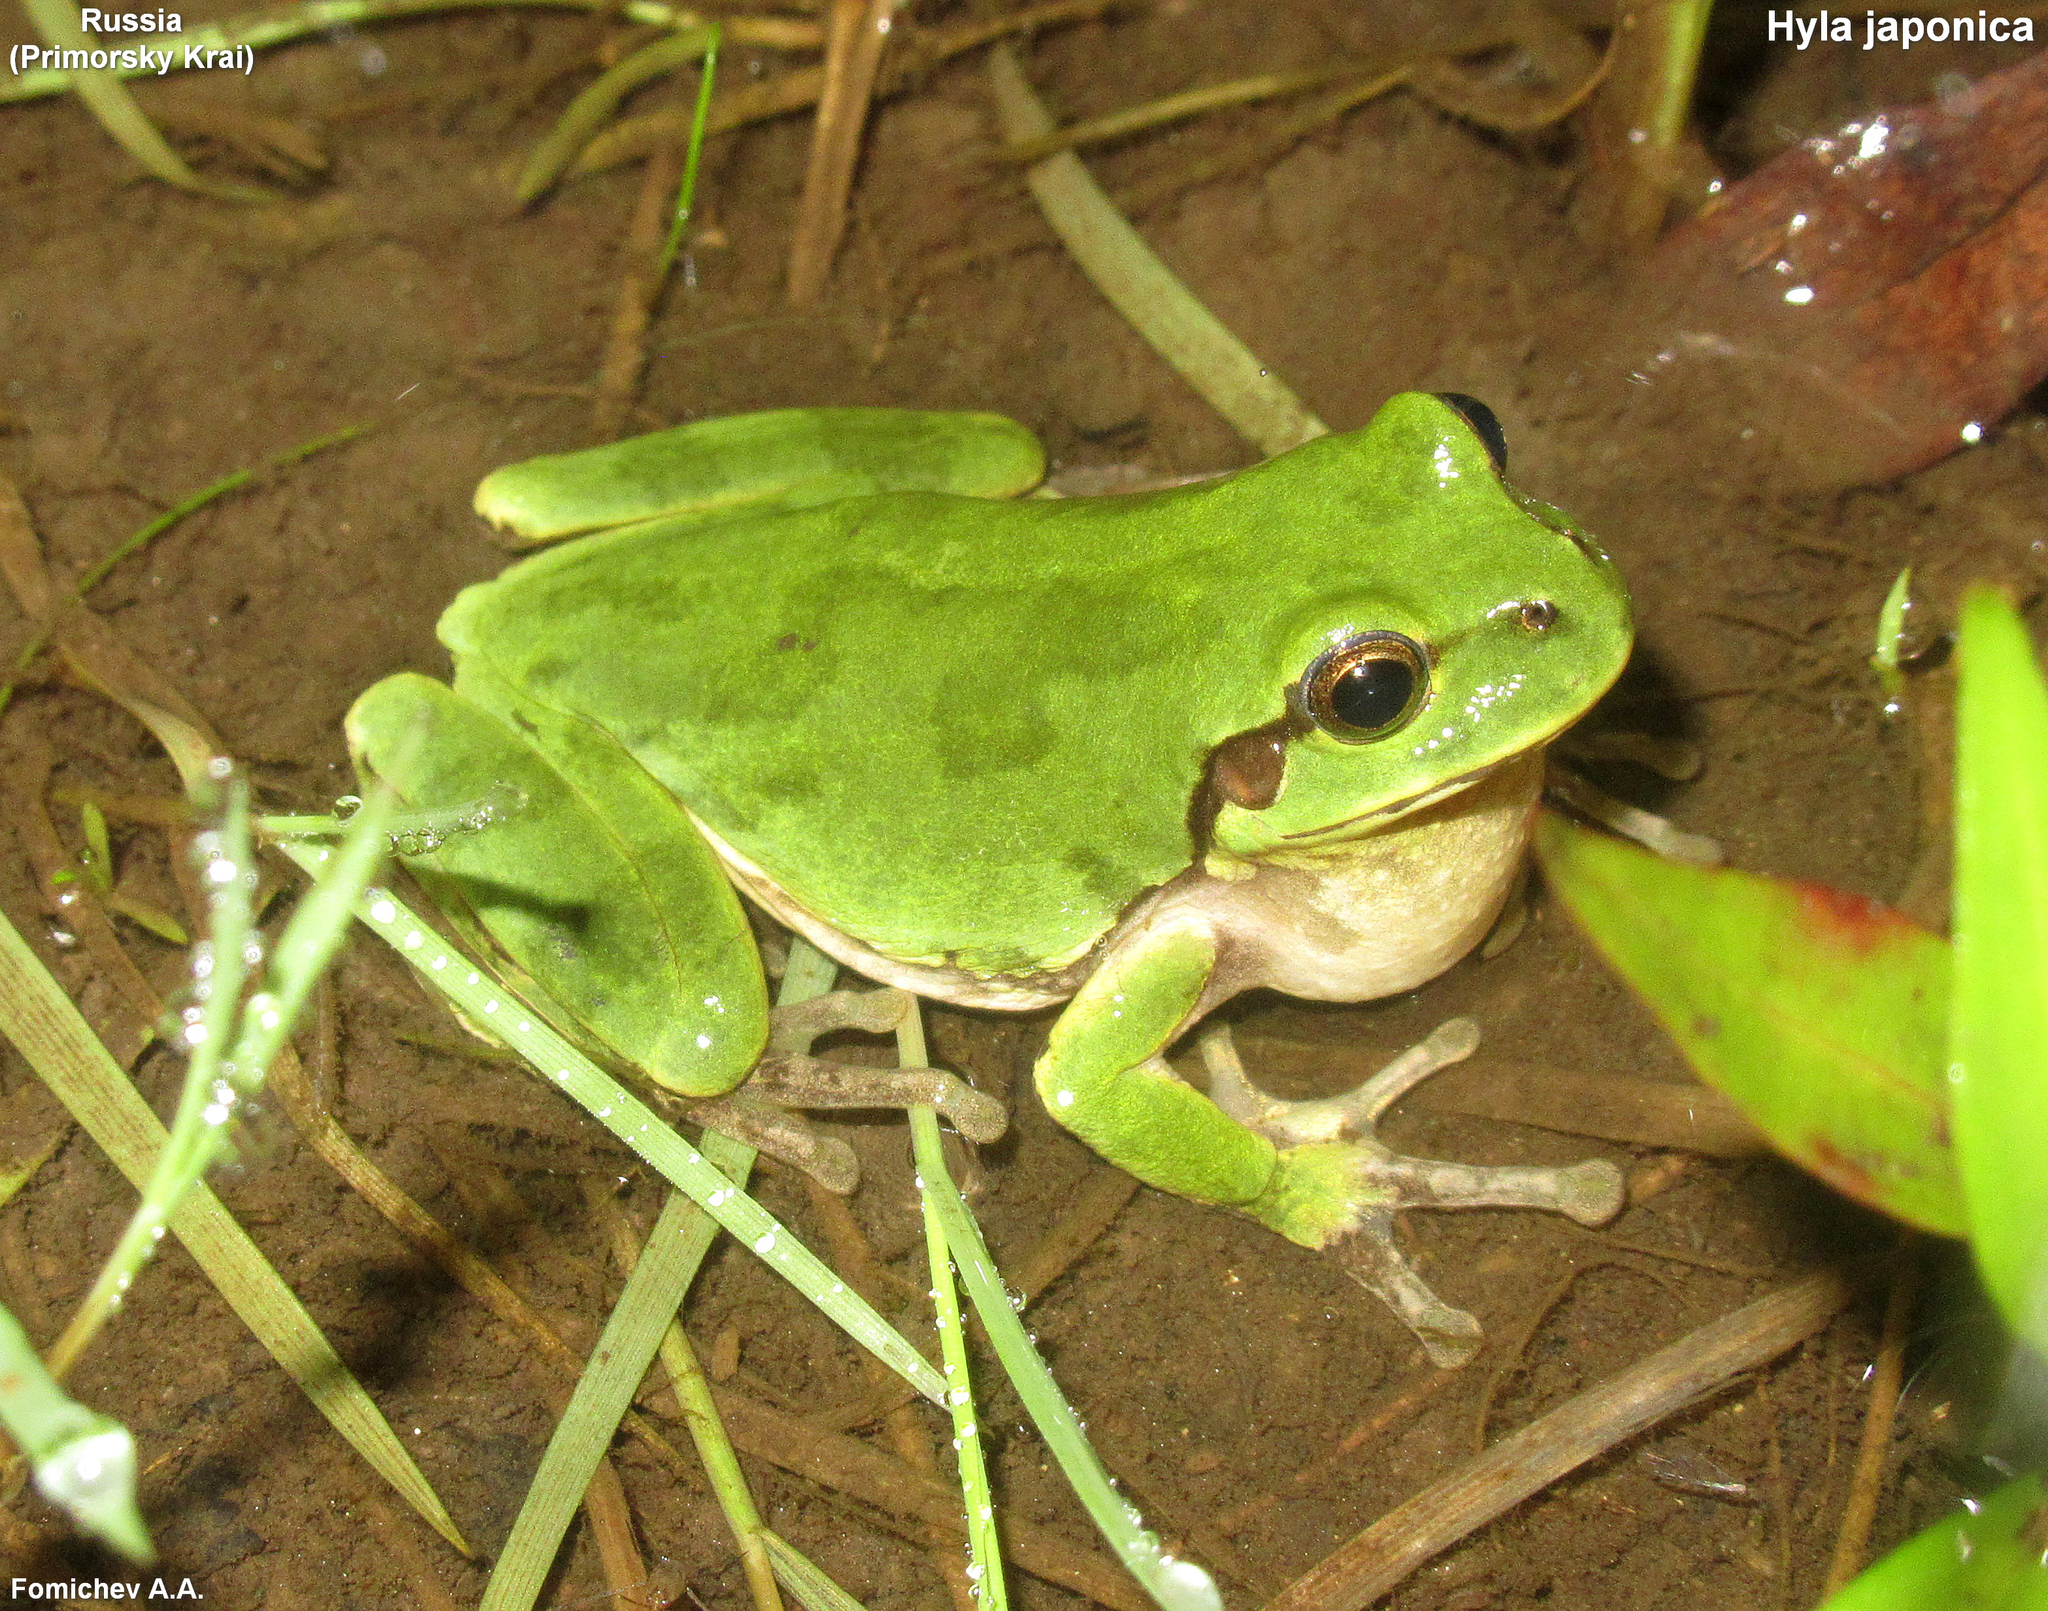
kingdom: Animalia
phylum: Chordata
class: Amphibia
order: Anura
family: Hylidae
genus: Dryophytes
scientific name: Dryophytes japonicus
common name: Japanese treefrog
